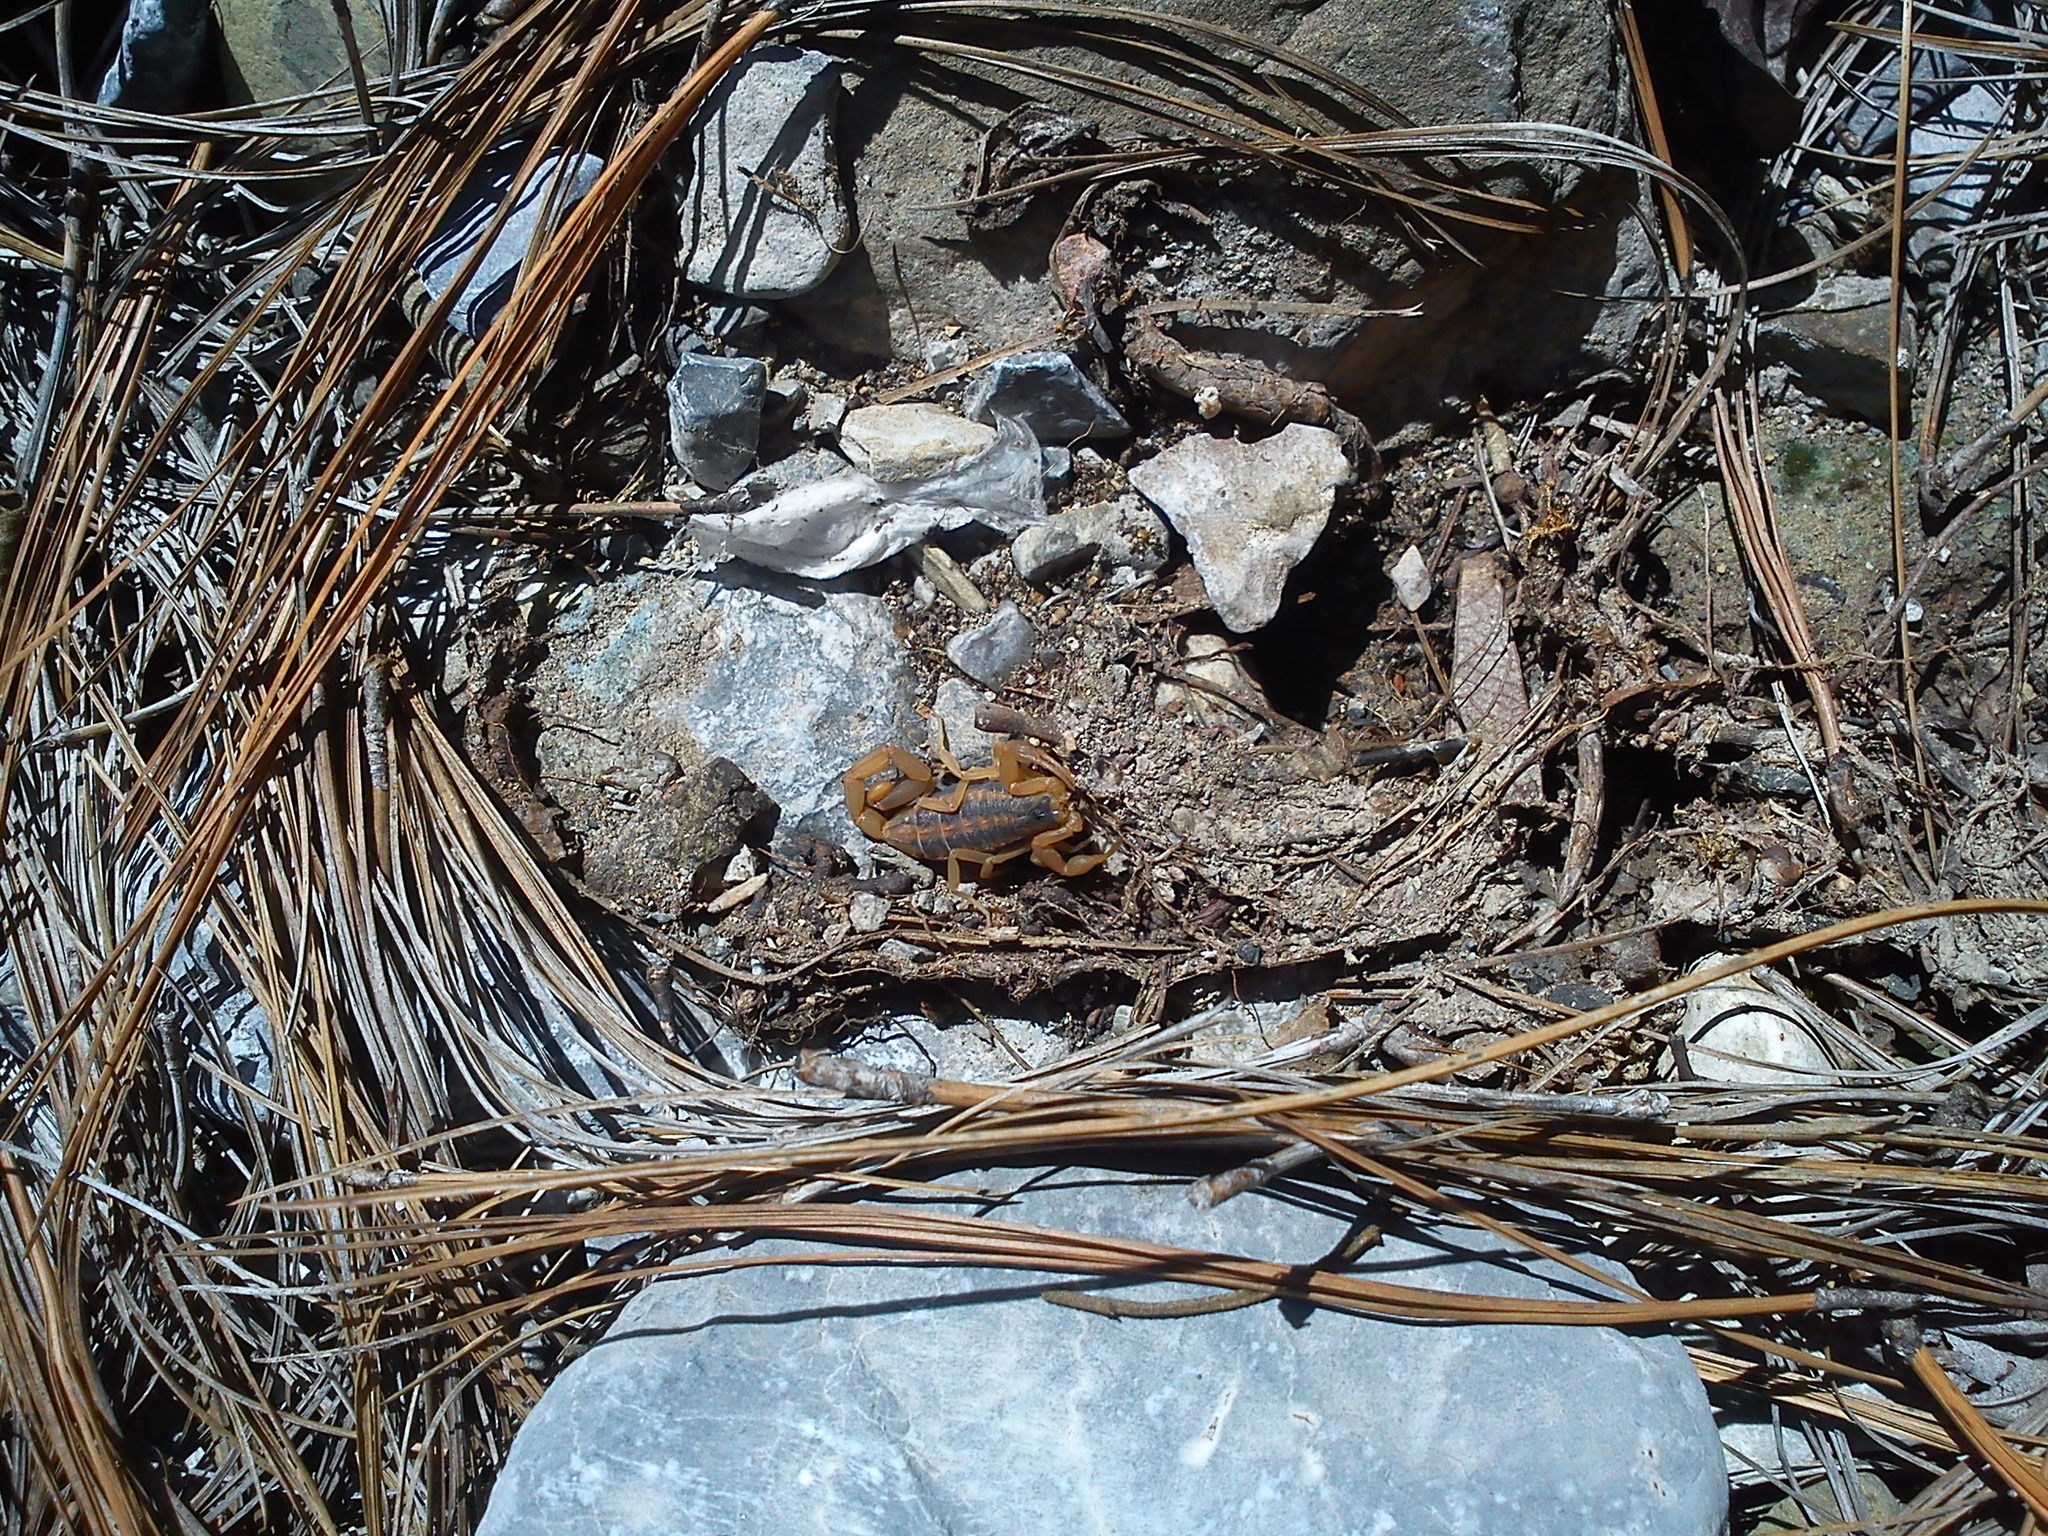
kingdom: Animalia
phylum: Arthropoda
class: Arachnida
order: Scorpiones
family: Buthidae
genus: Centruroides
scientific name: Centruroides vittatus
